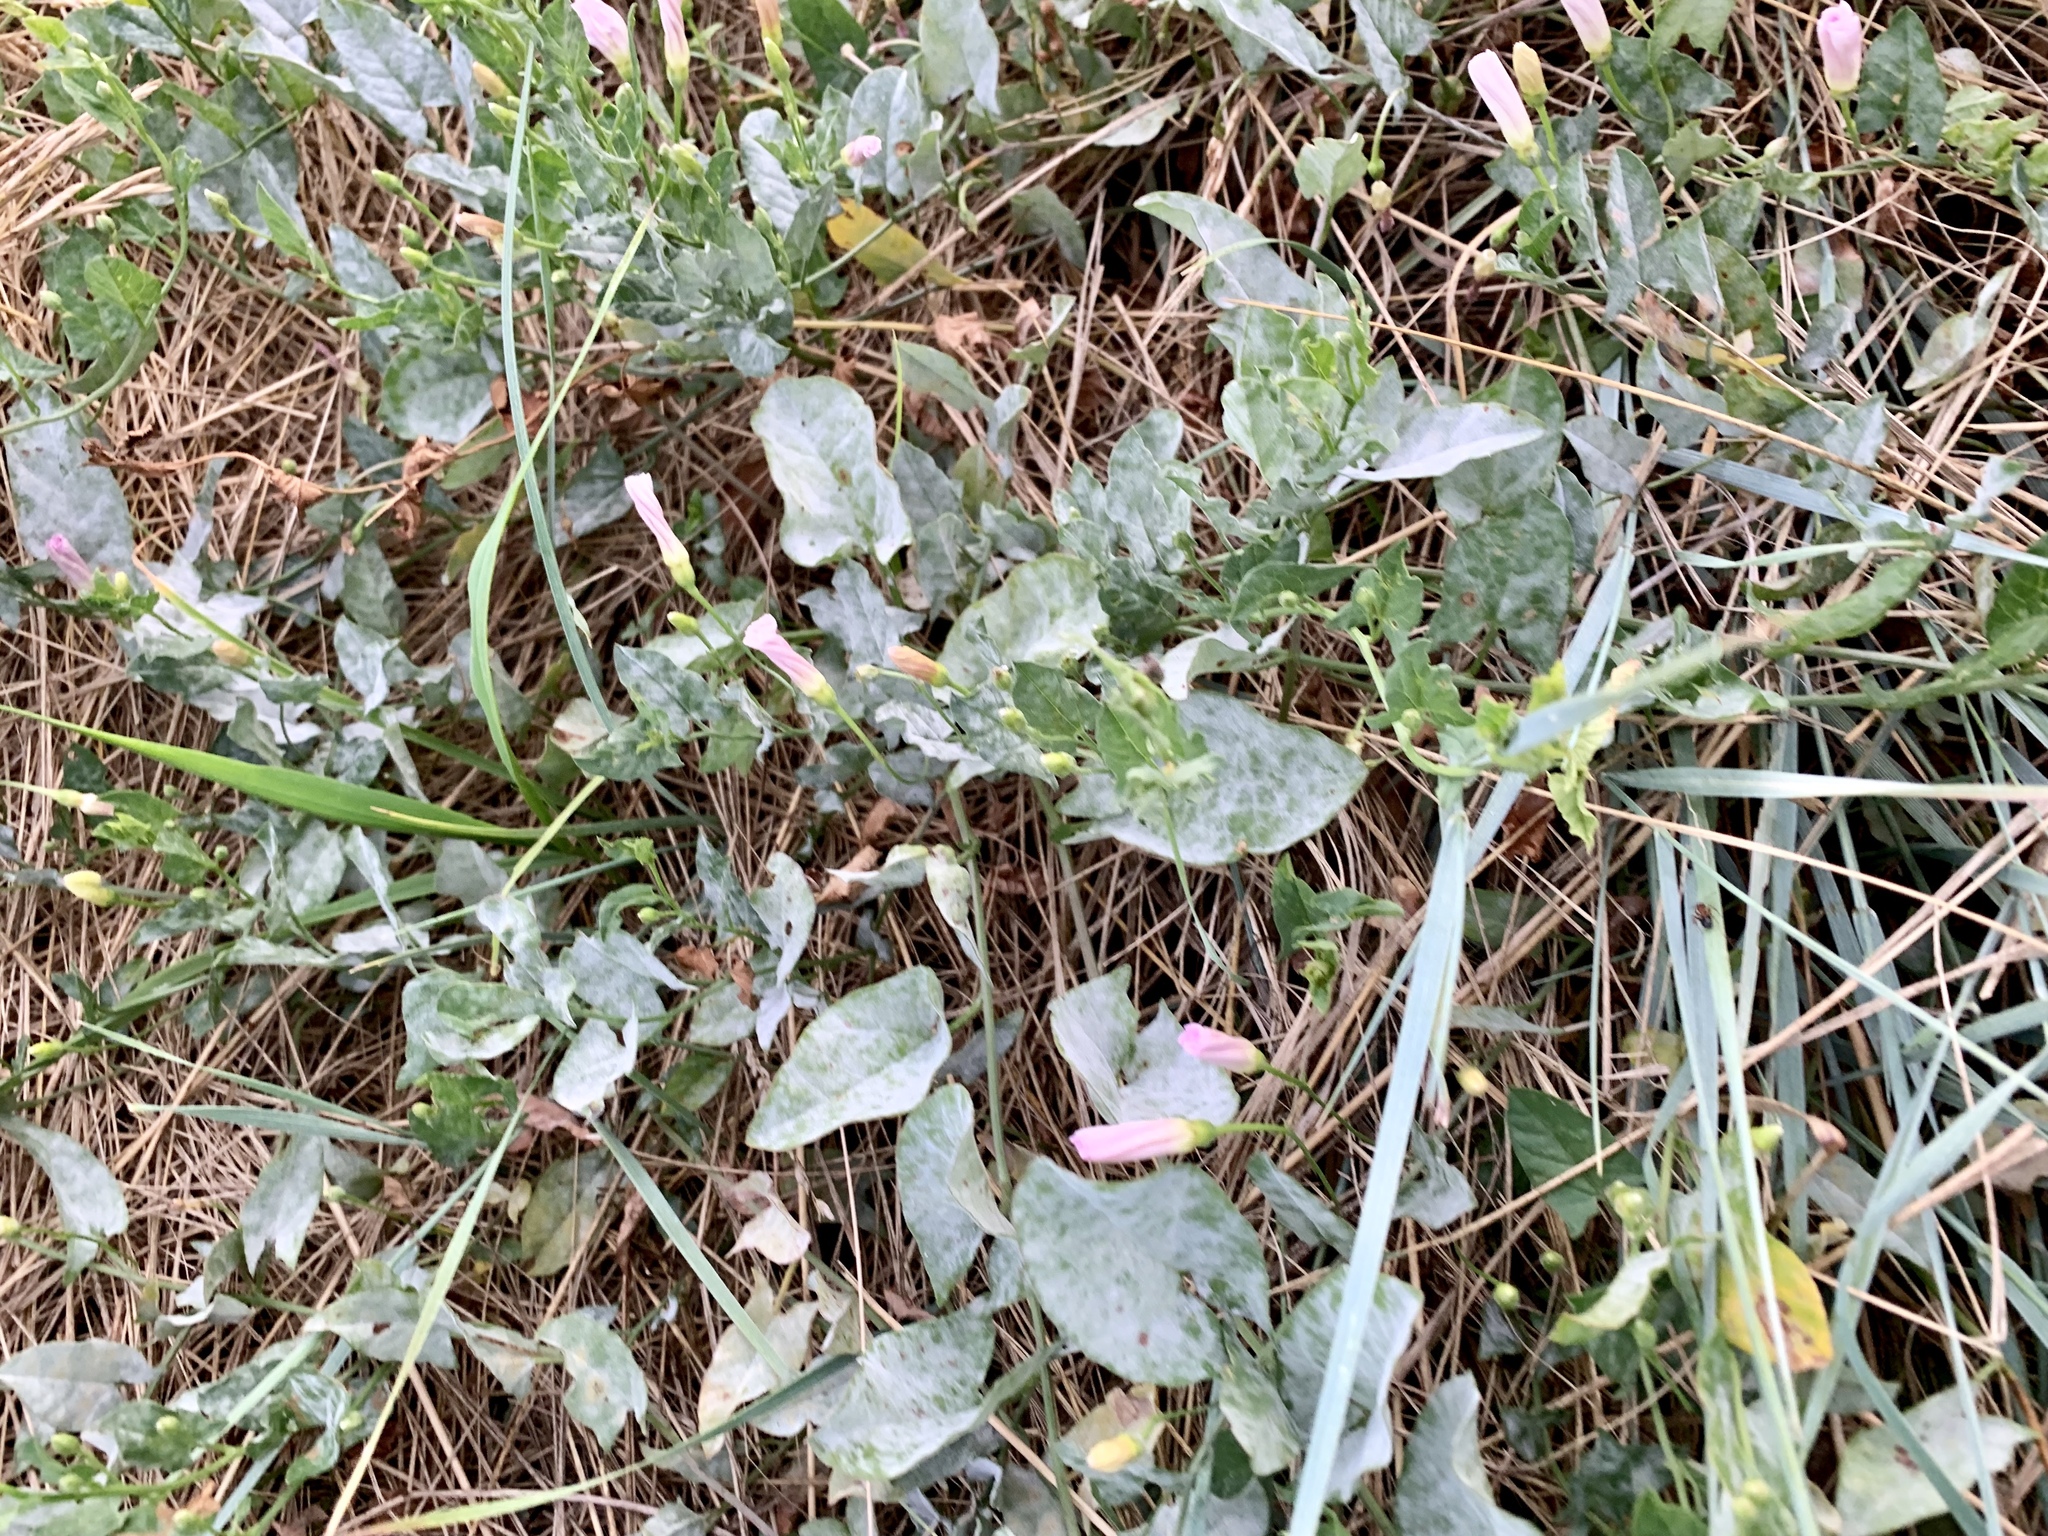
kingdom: Plantae
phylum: Tracheophyta
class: Magnoliopsida
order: Solanales
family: Convolvulaceae
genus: Convolvulus
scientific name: Convolvulus arvensis
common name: Field bindweed
